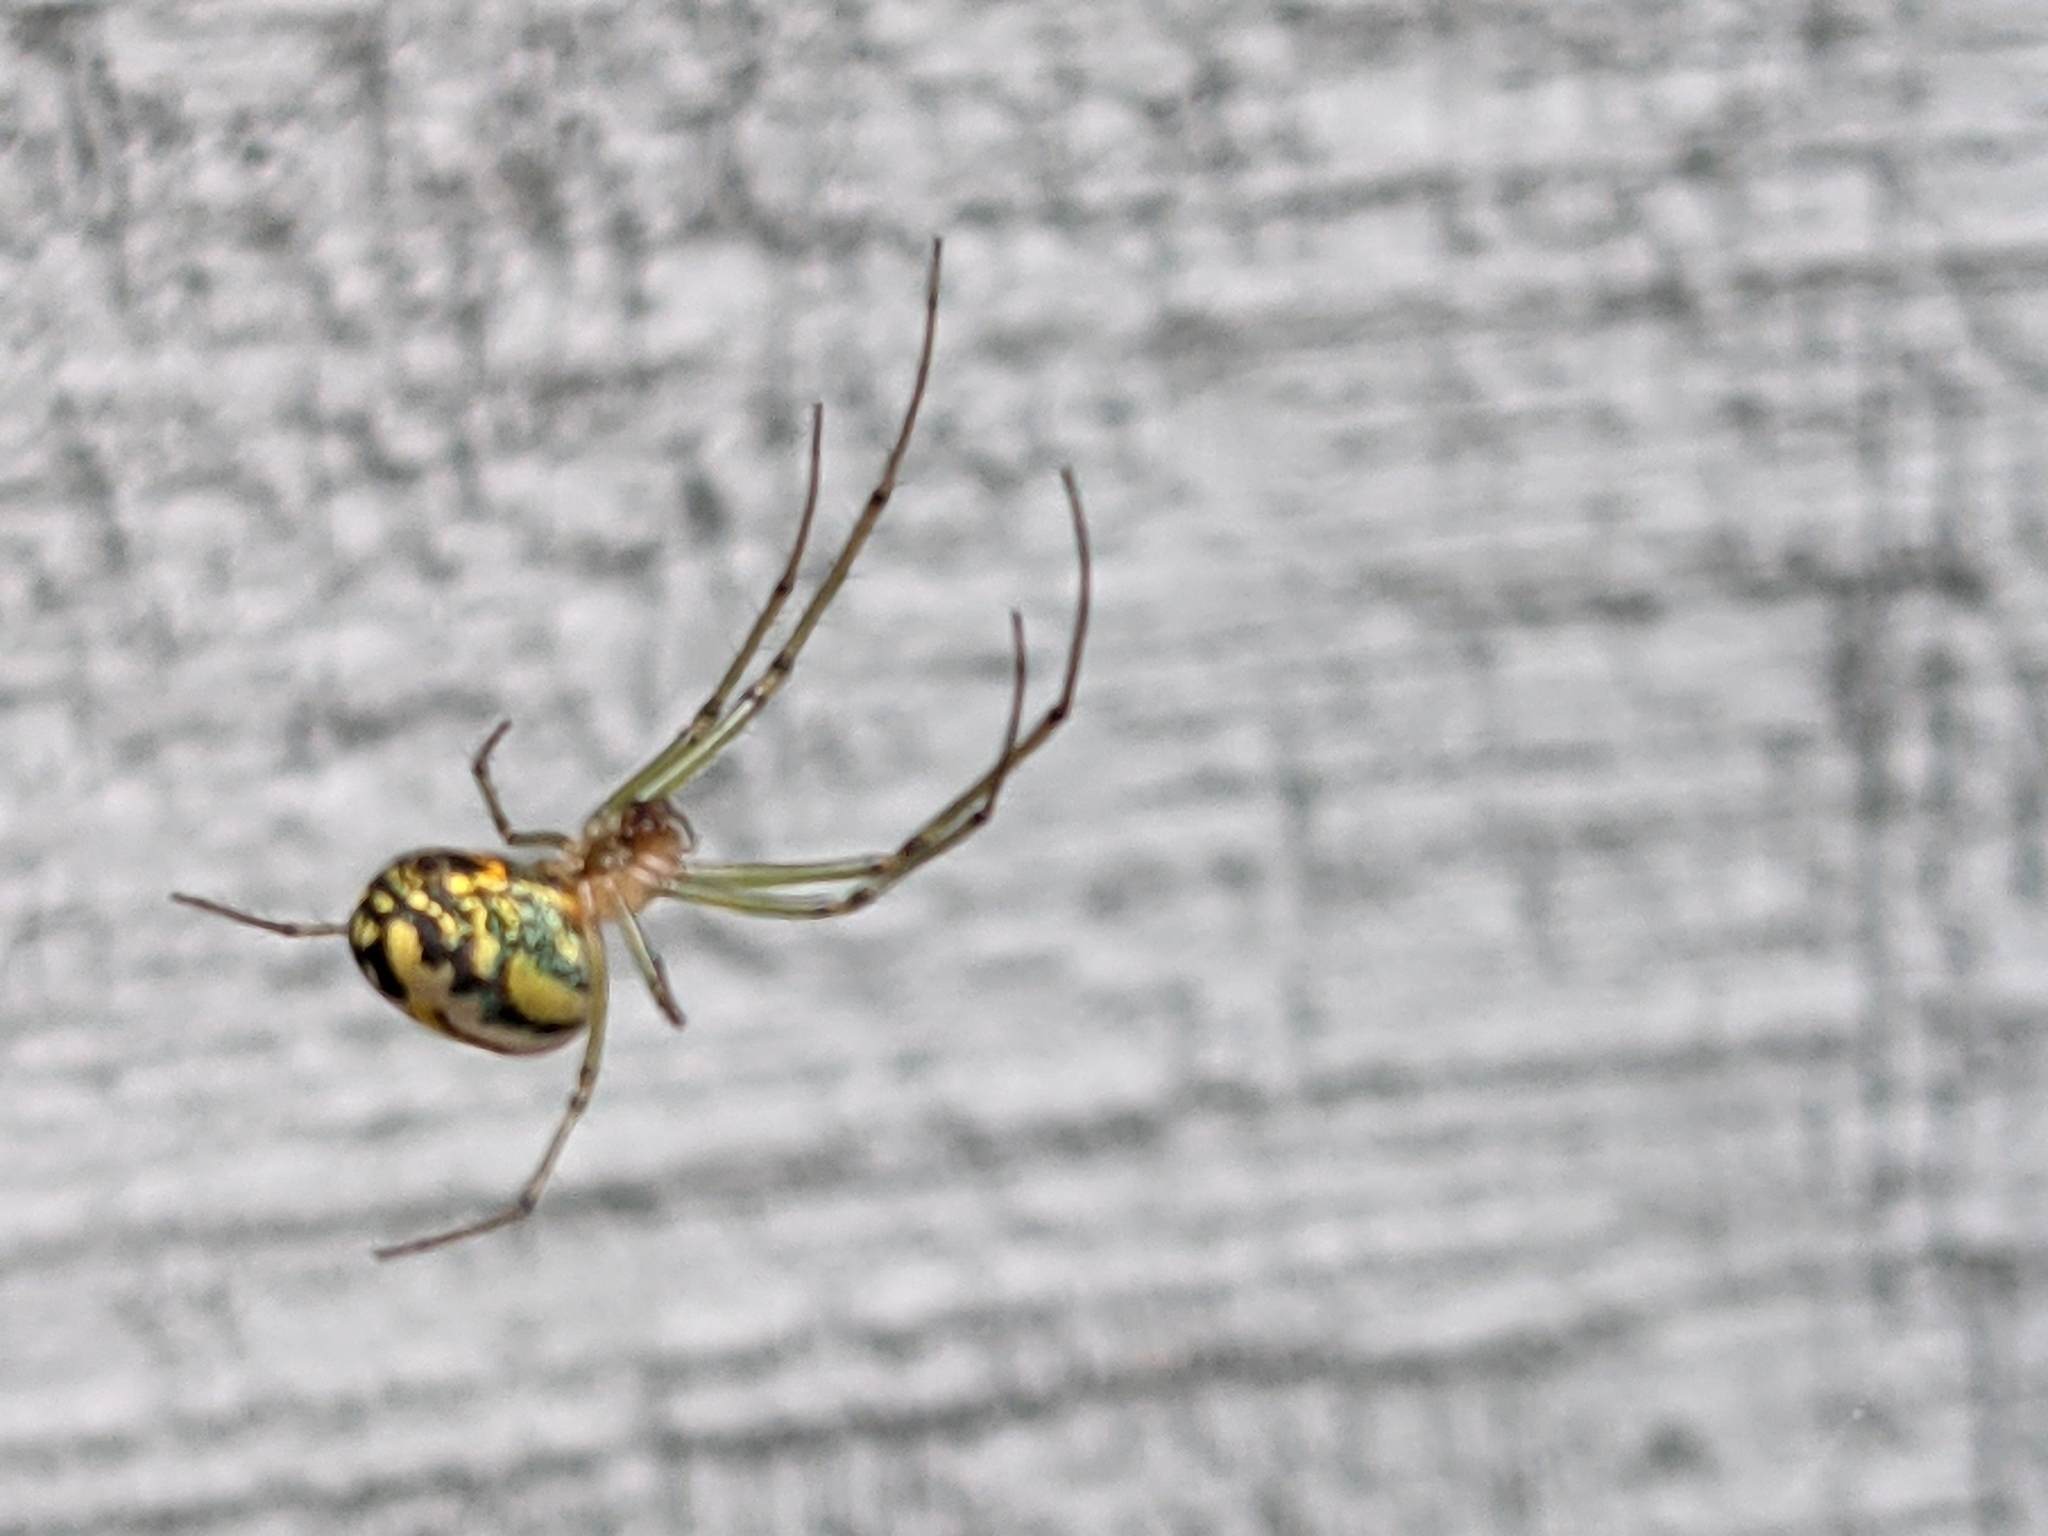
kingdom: Animalia
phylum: Arthropoda
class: Arachnida
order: Araneae
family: Tetragnathidae
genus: Leucauge
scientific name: Leucauge venusta
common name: Longjawed orb weavers
